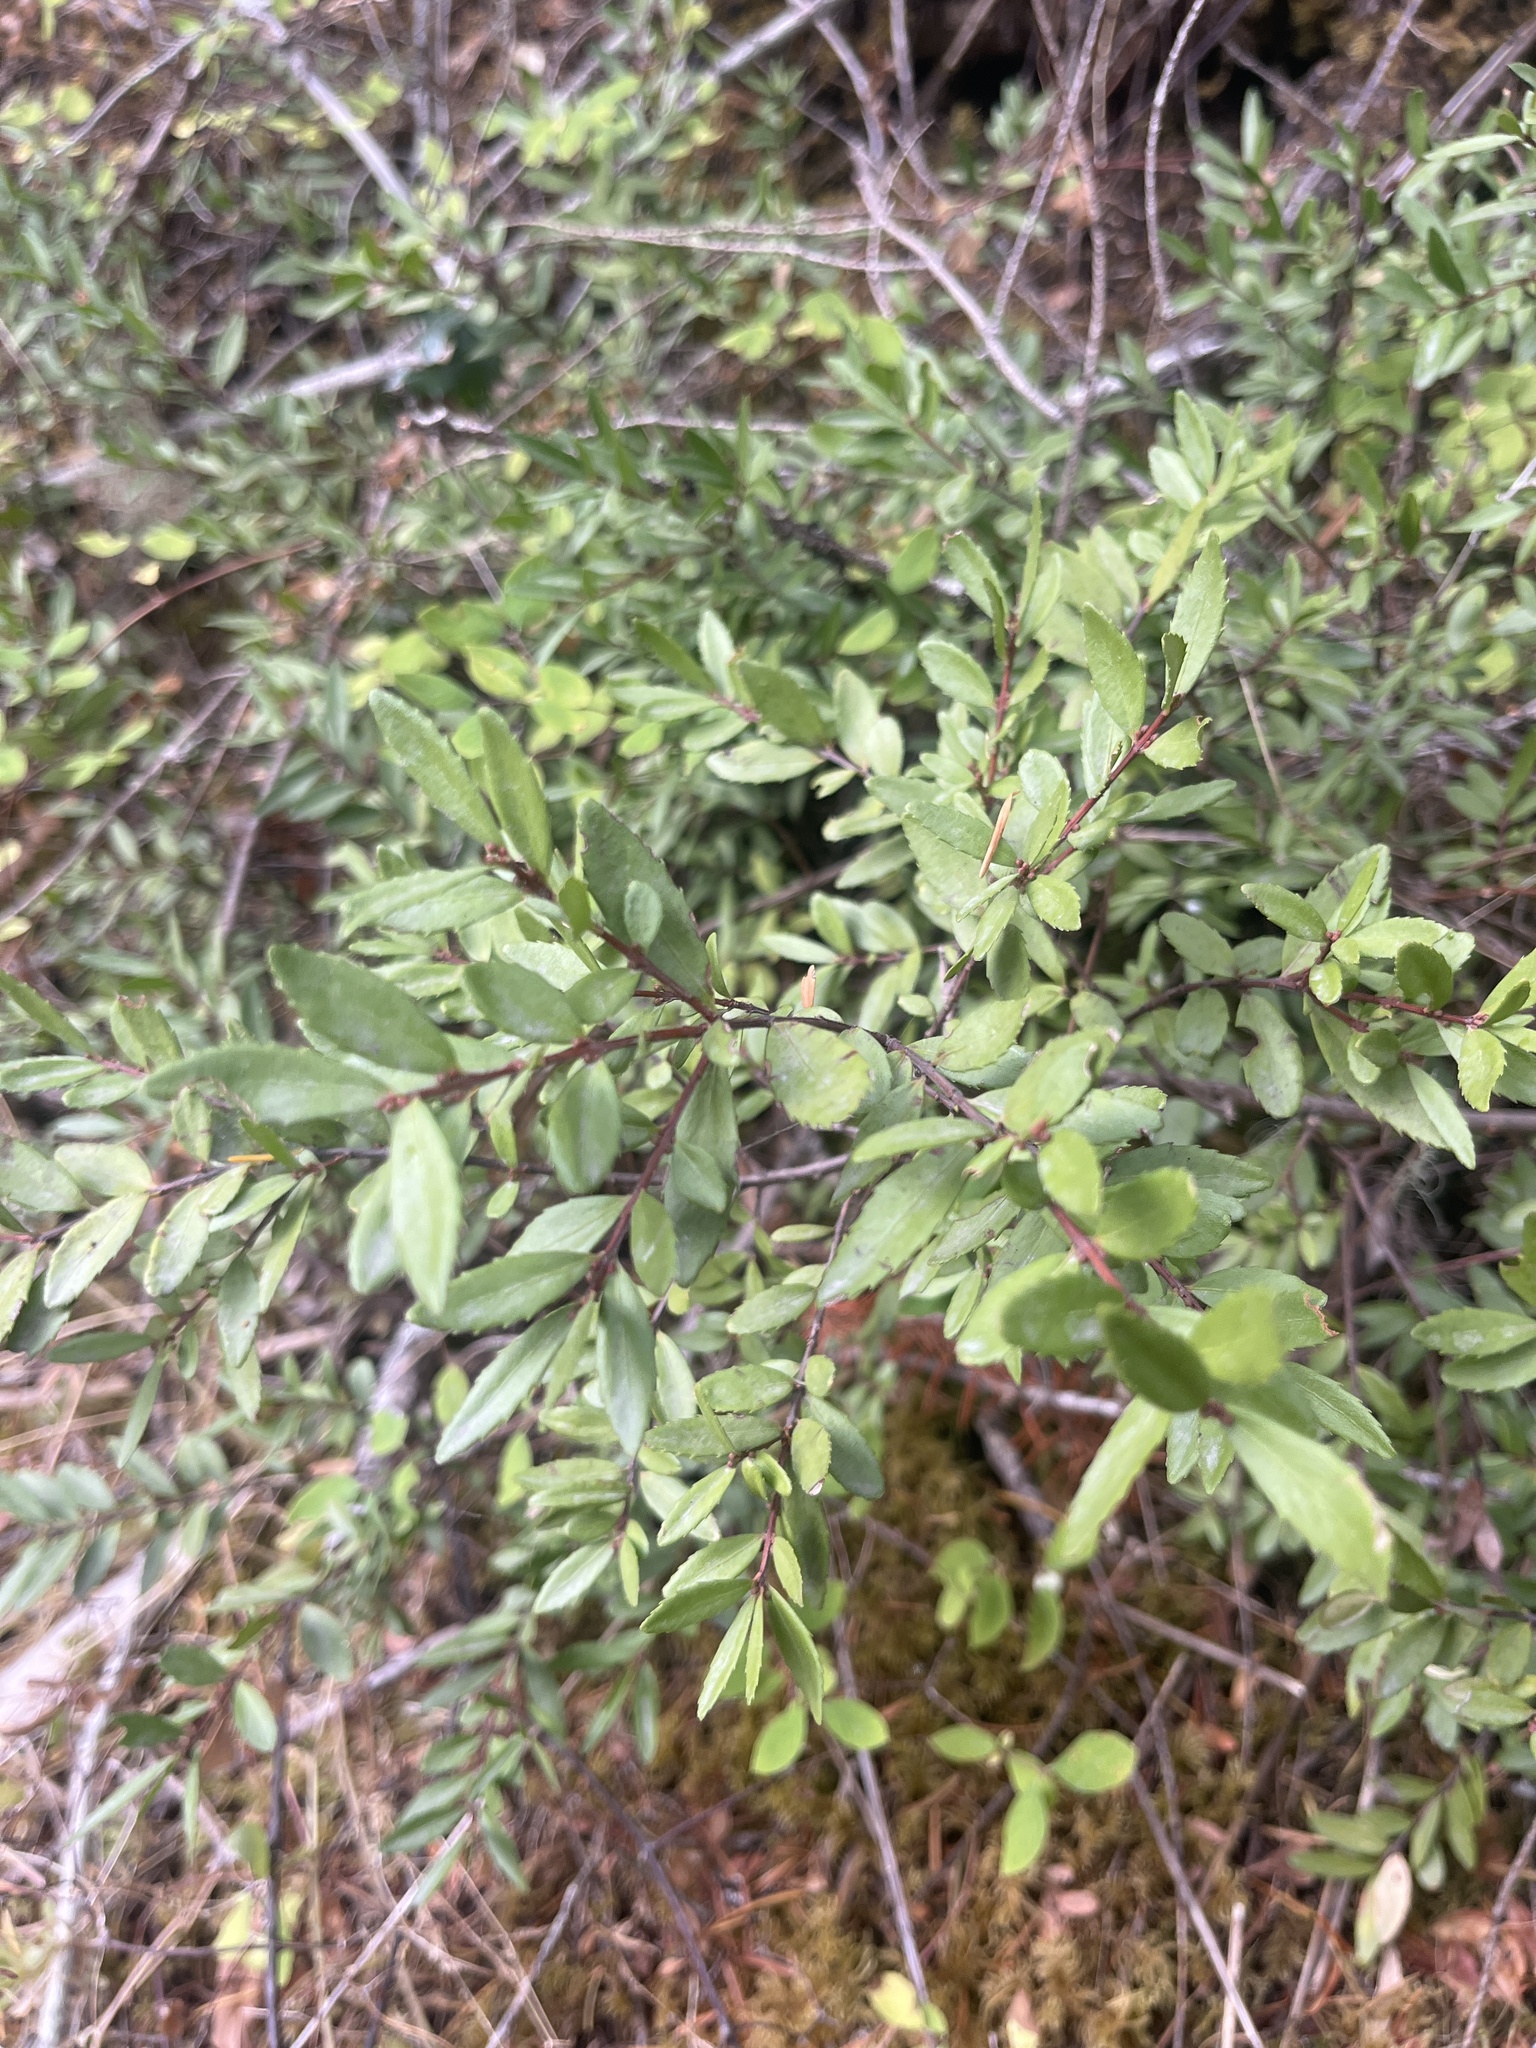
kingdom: Plantae
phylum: Tracheophyta
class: Magnoliopsida
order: Celastrales
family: Celastraceae
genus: Paxistima
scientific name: Paxistima myrsinites
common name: Mountain-lover
